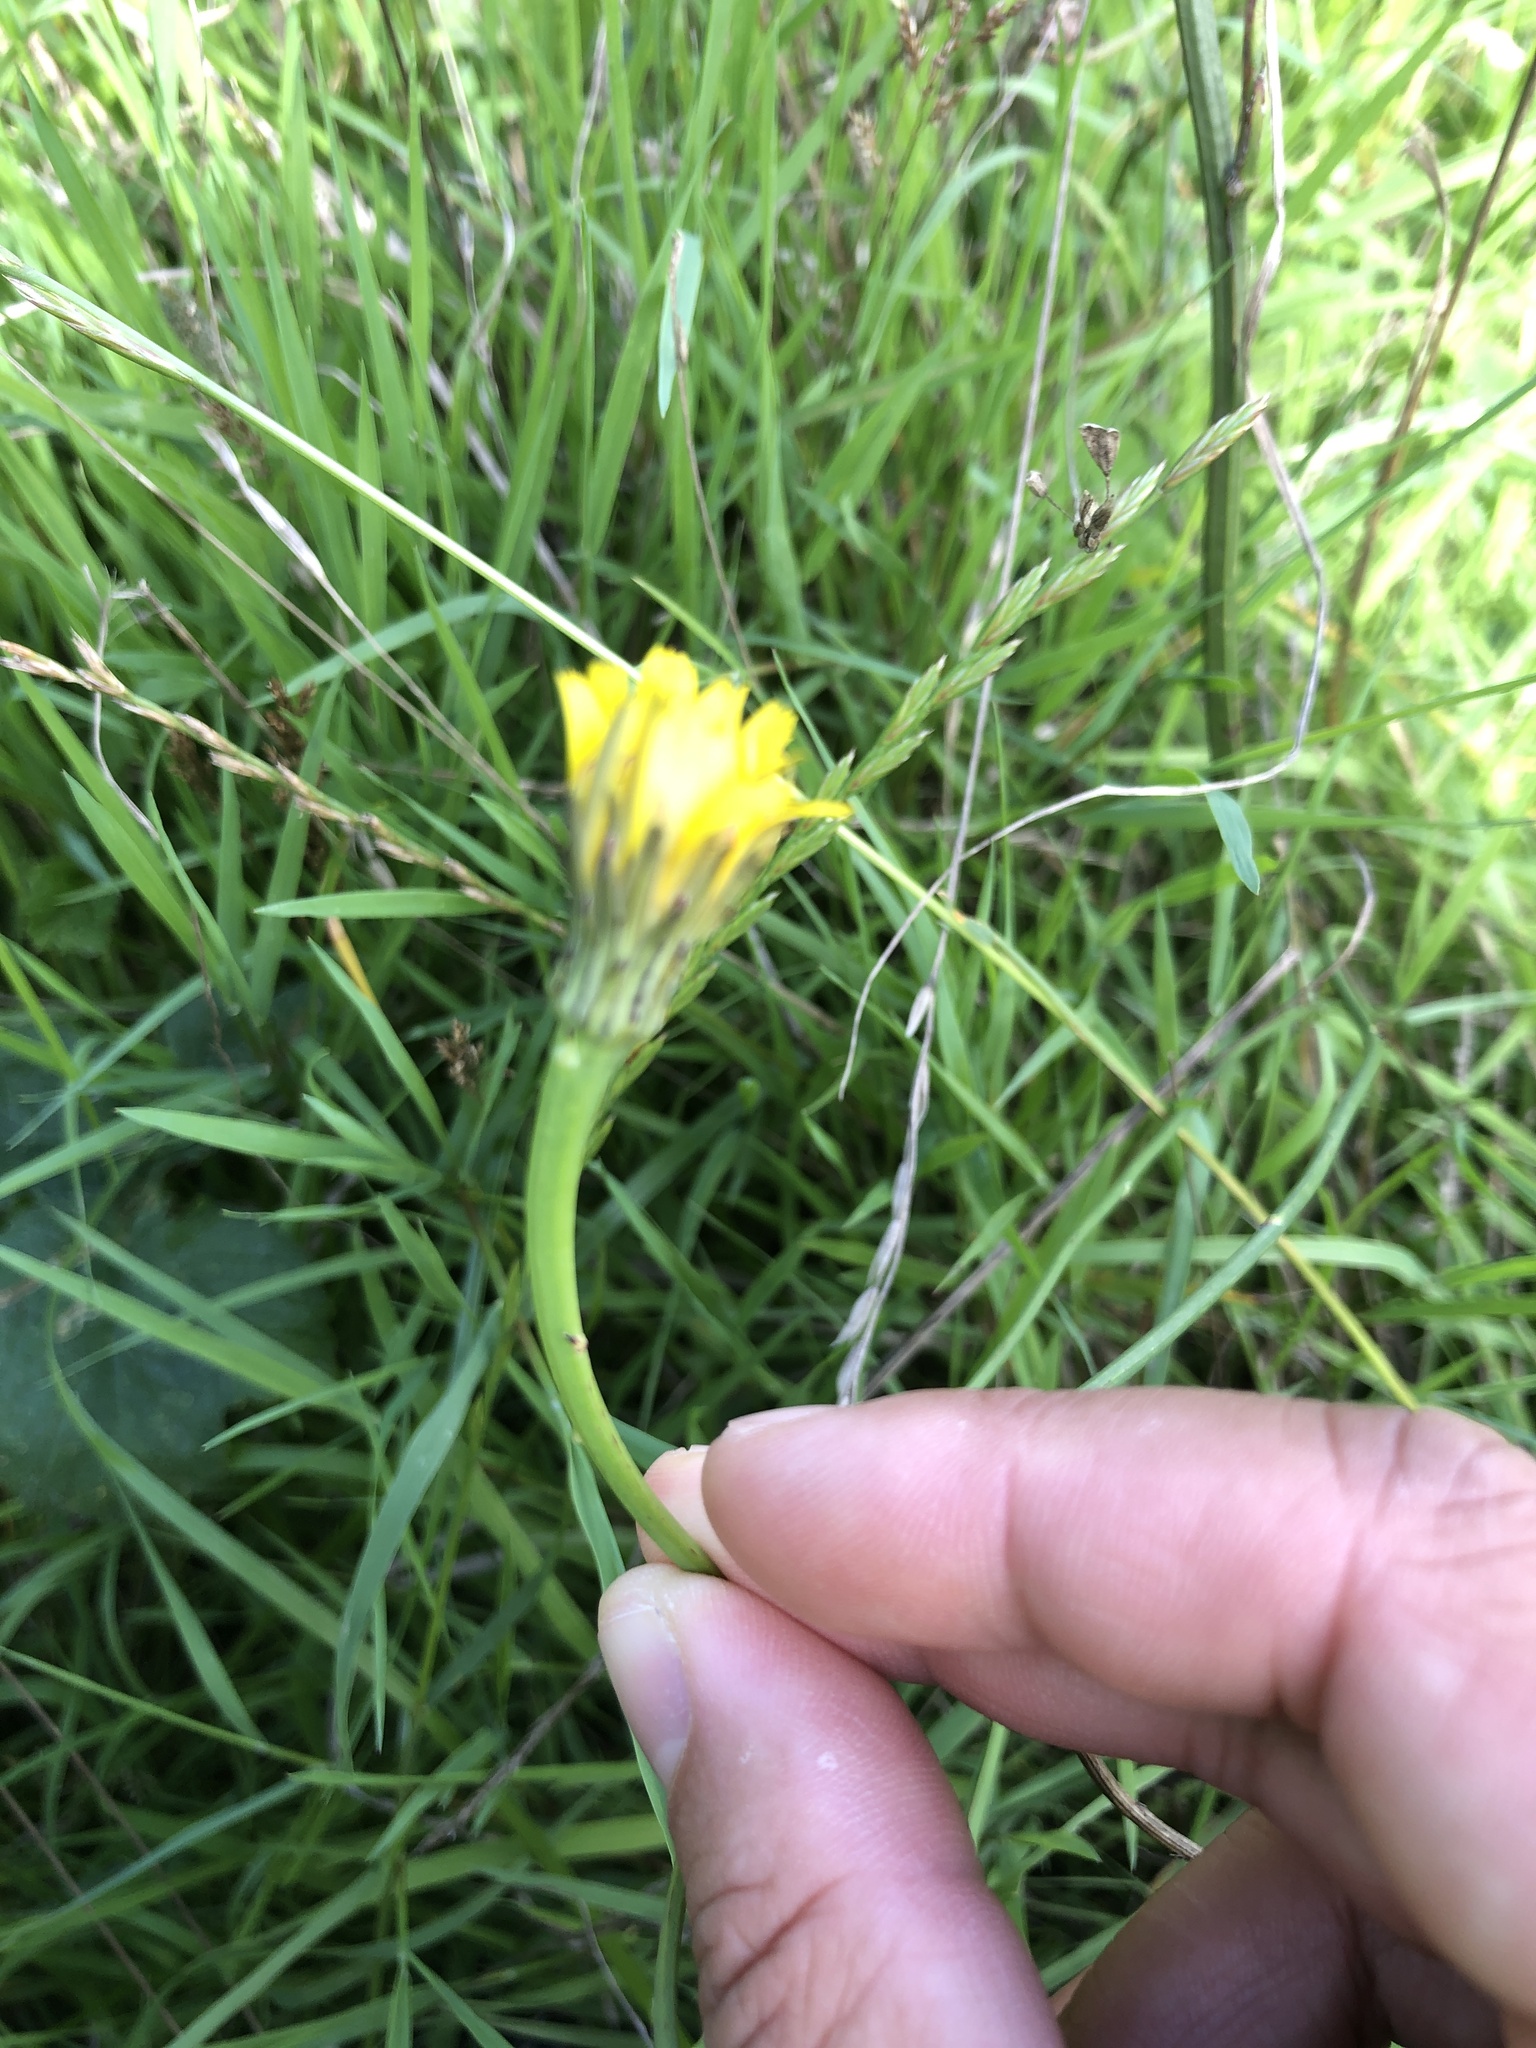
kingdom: Plantae
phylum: Tracheophyta
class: Magnoliopsida
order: Asterales
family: Asteraceae
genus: Hypochaeris
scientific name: Hypochaeris radicata
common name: Flatweed
